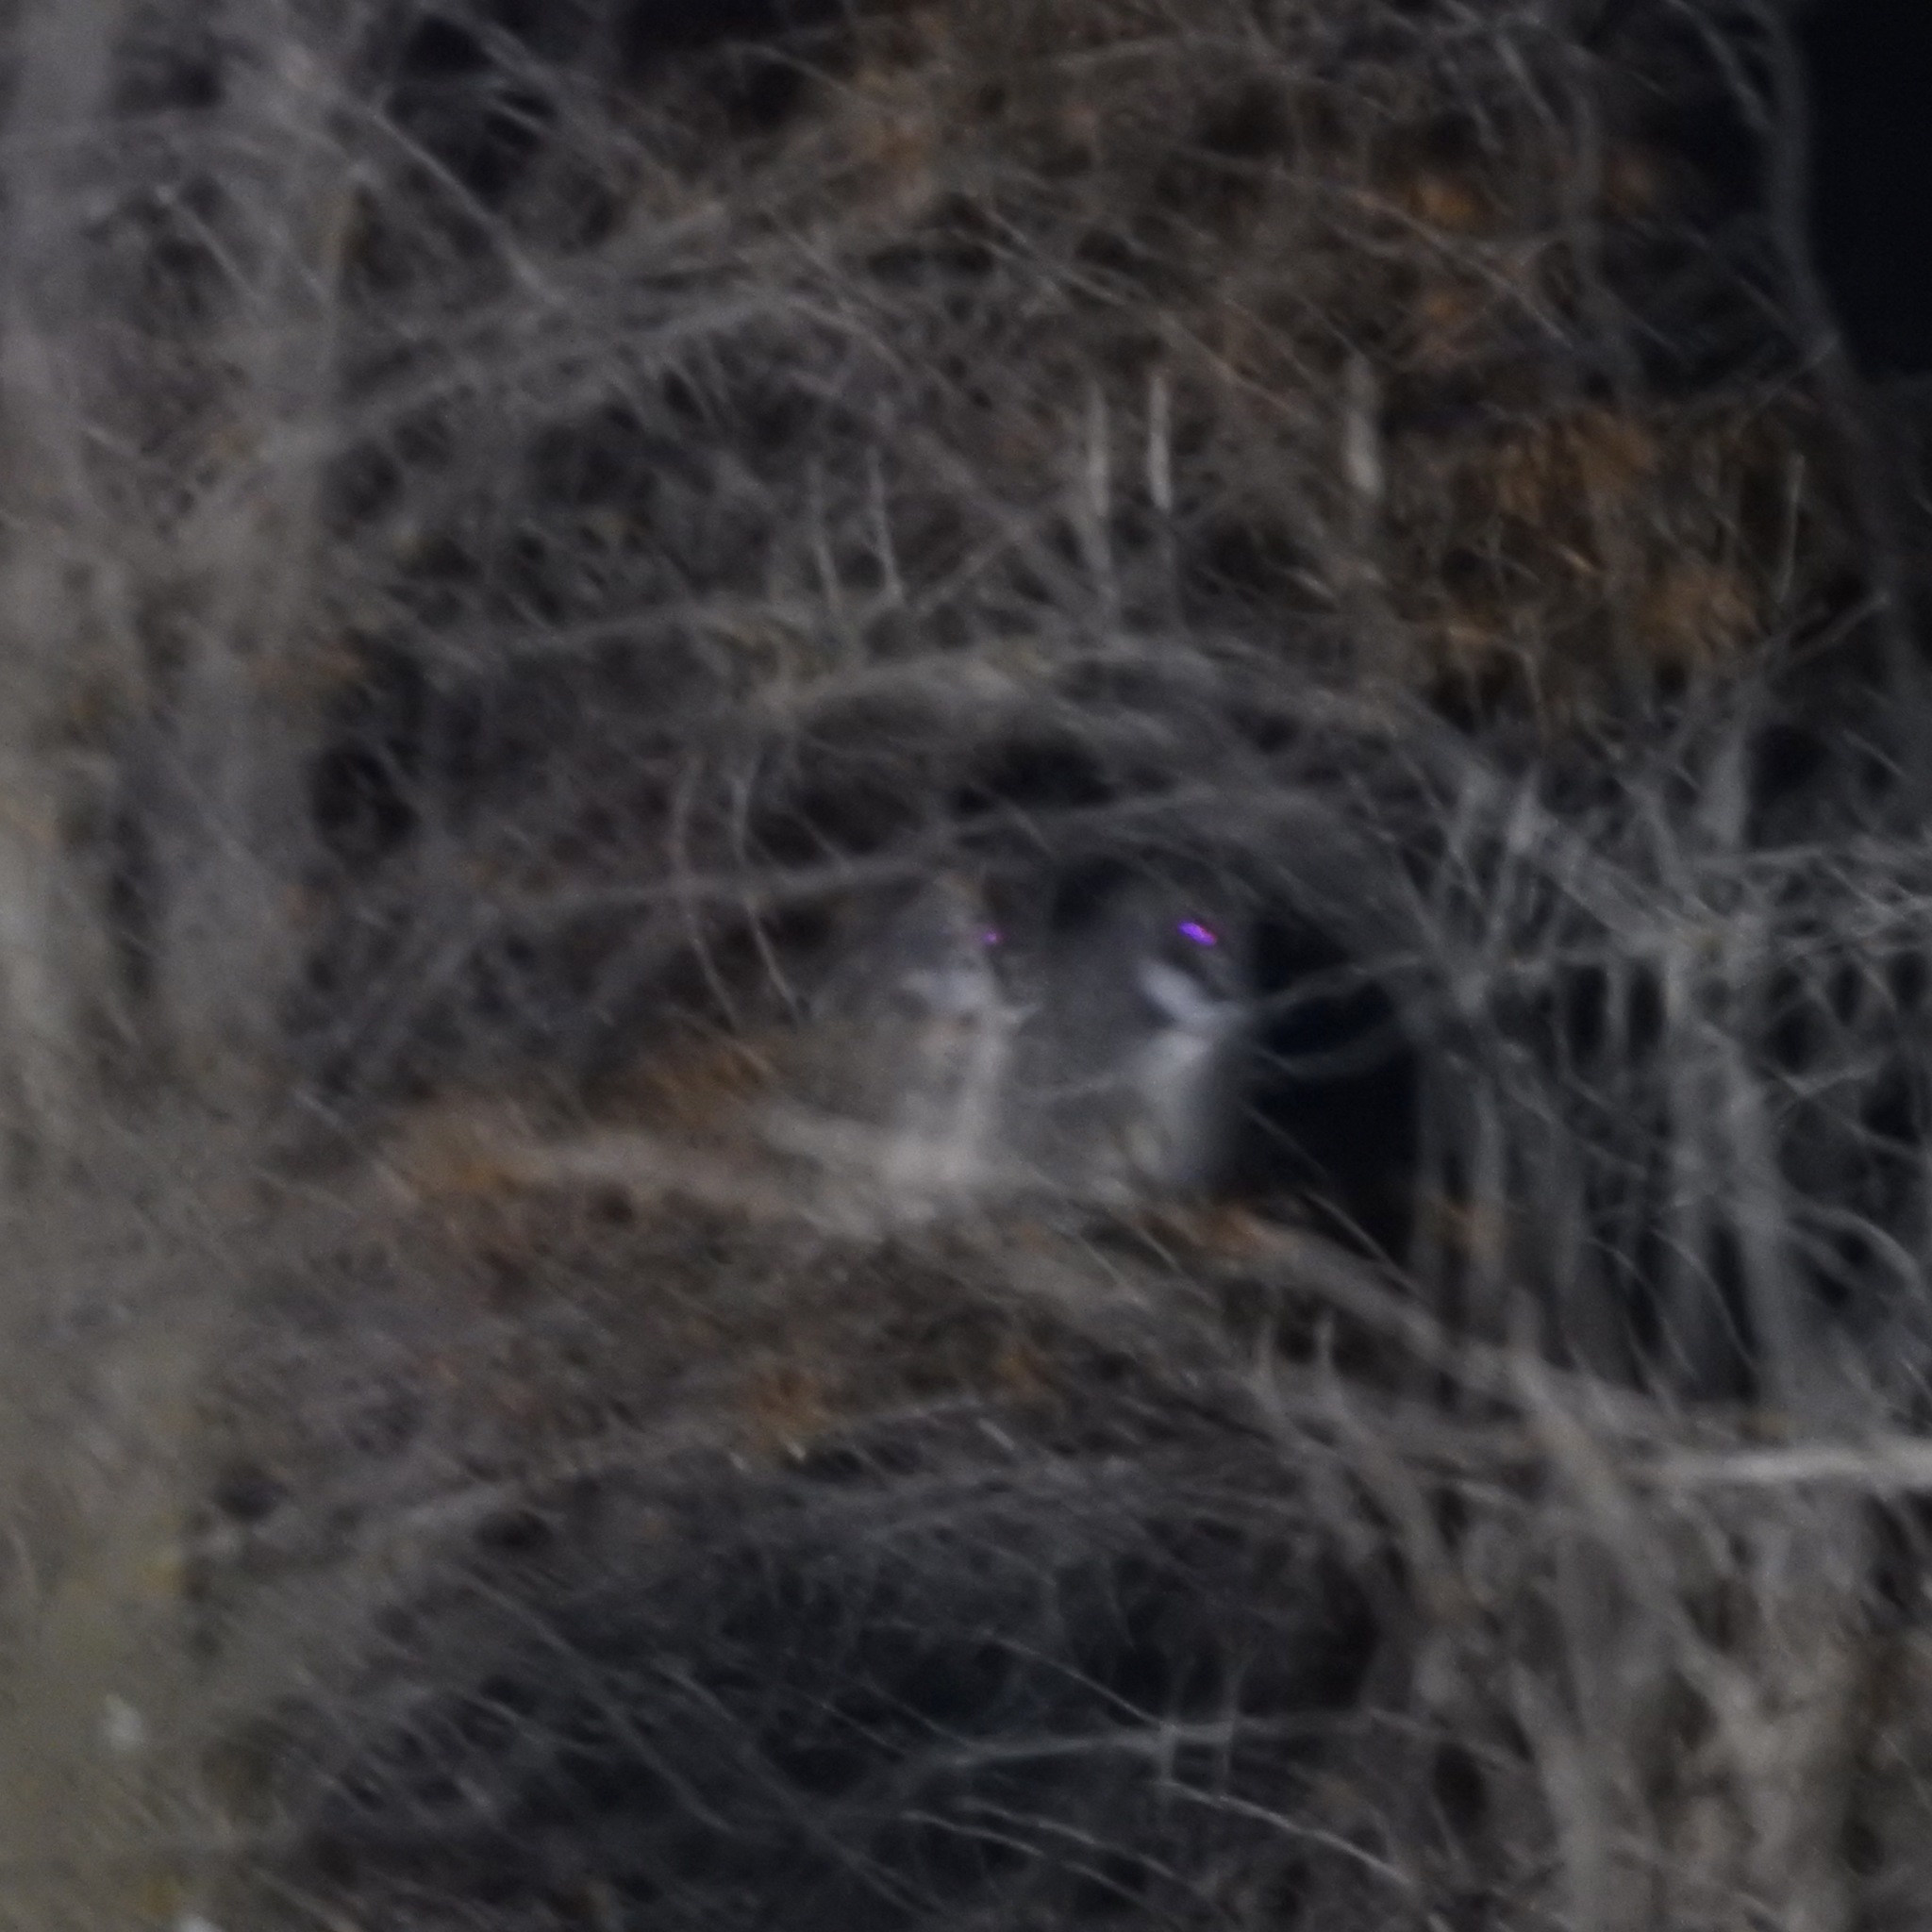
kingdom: Animalia
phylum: Chordata
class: Aves
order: Strigiformes
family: Strigidae
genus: Bubo
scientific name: Bubo virginianus
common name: Great horned owl
